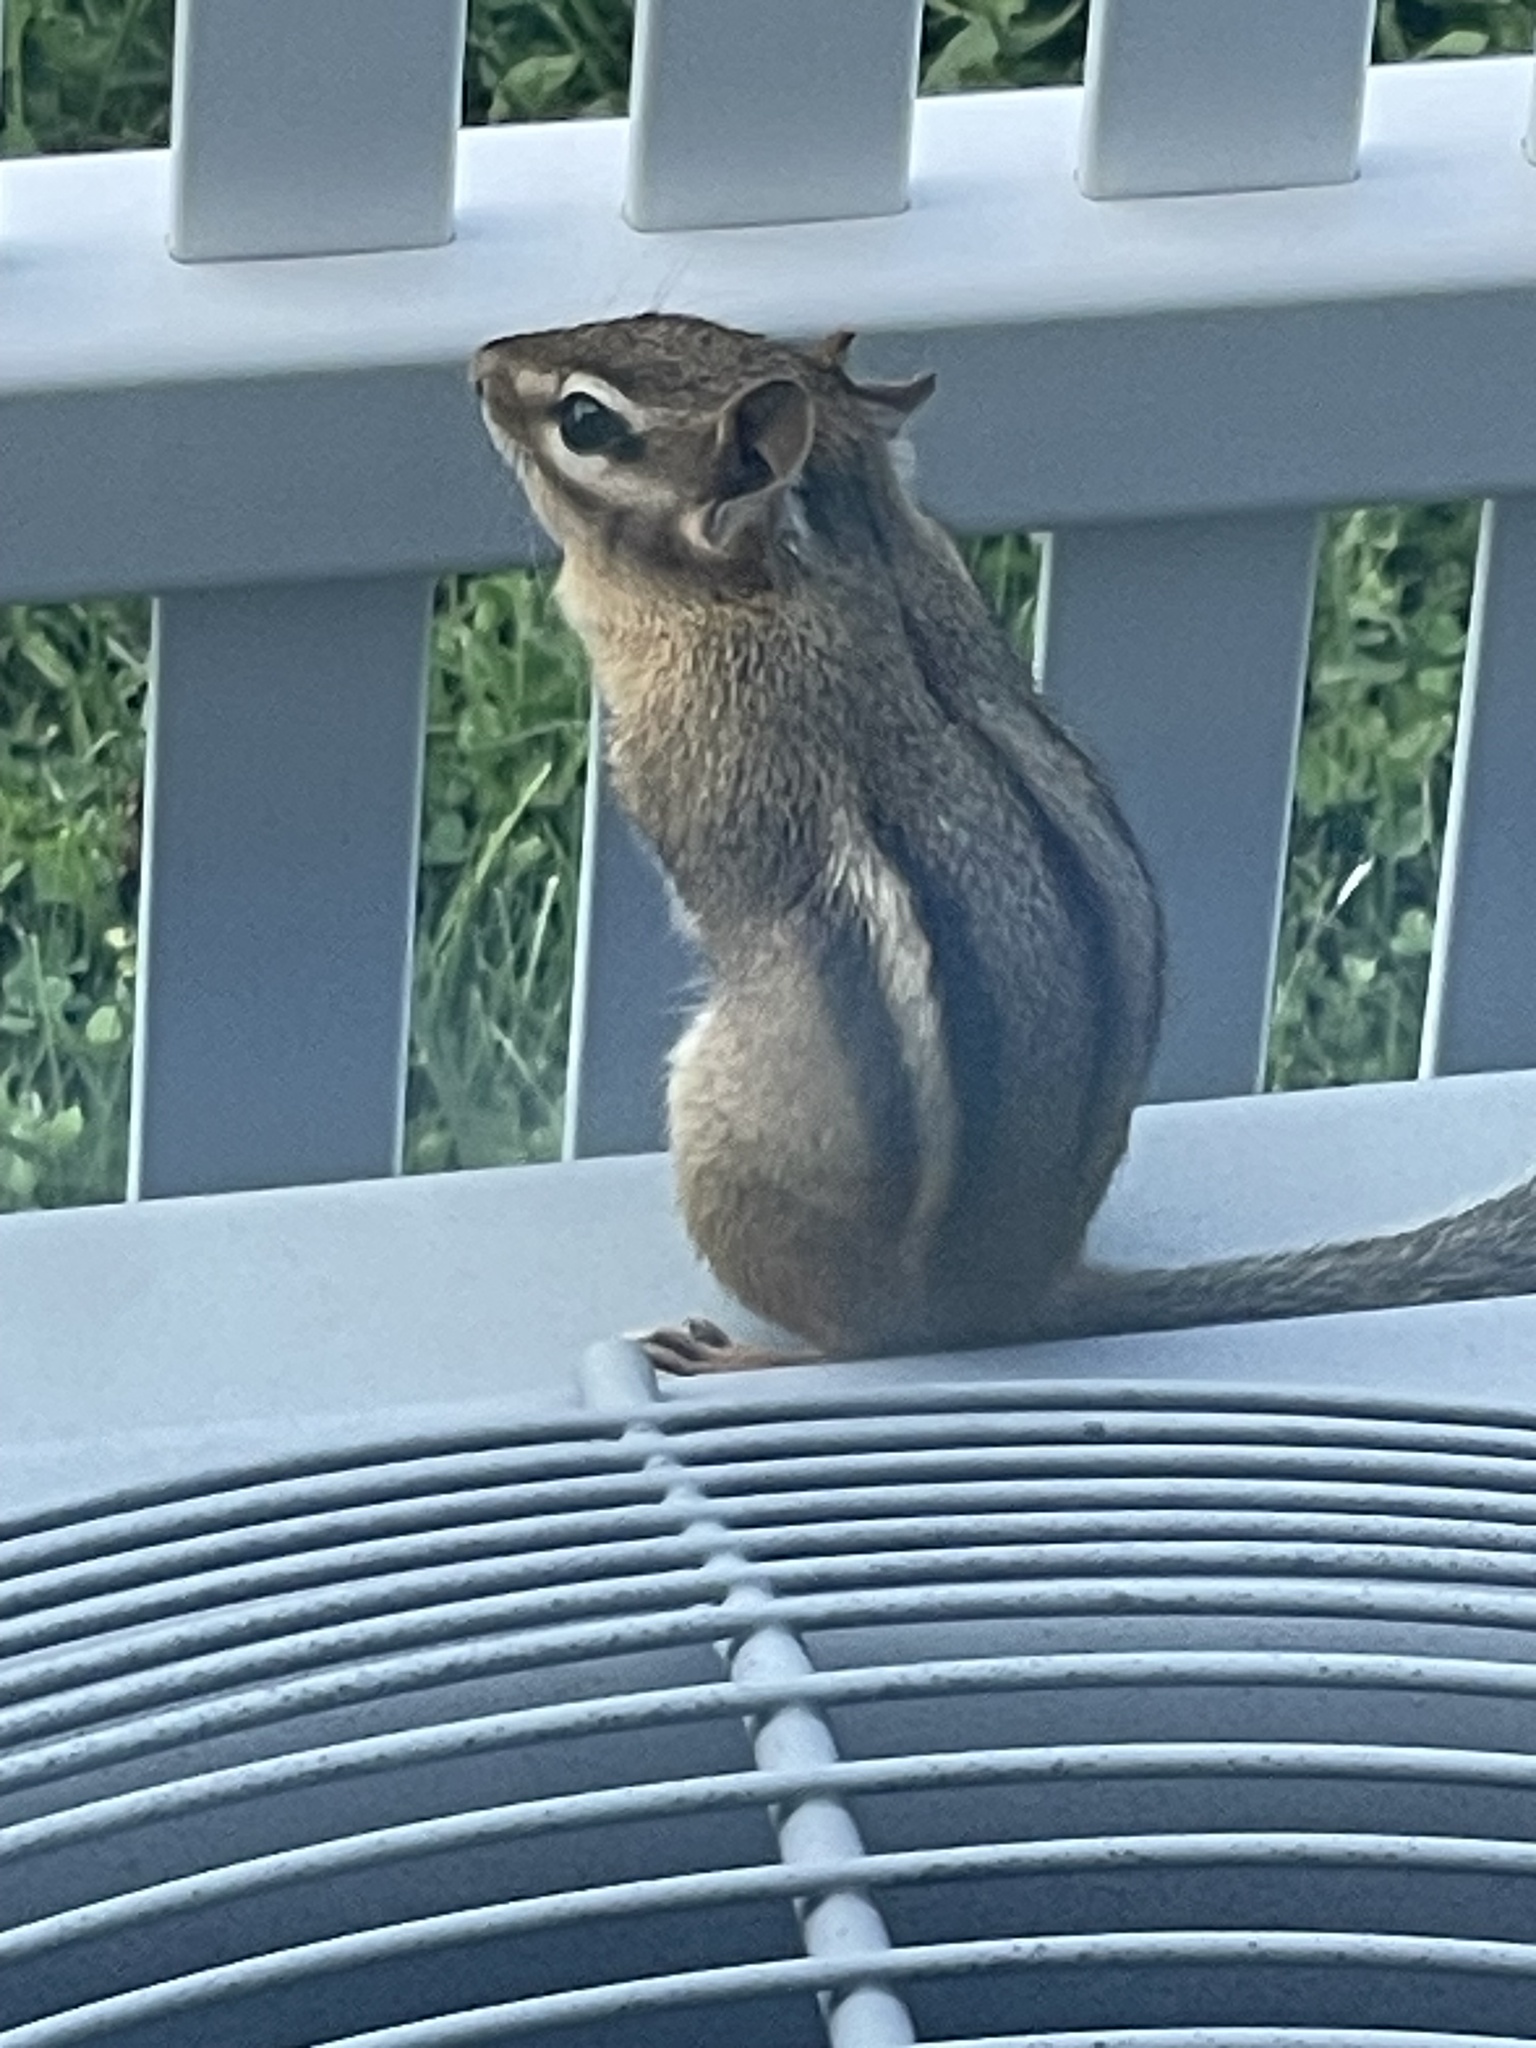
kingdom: Animalia
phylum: Chordata
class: Mammalia
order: Rodentia
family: Sciuridae
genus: Tamias
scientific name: Tamias striatus
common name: Eastern chipmunk
